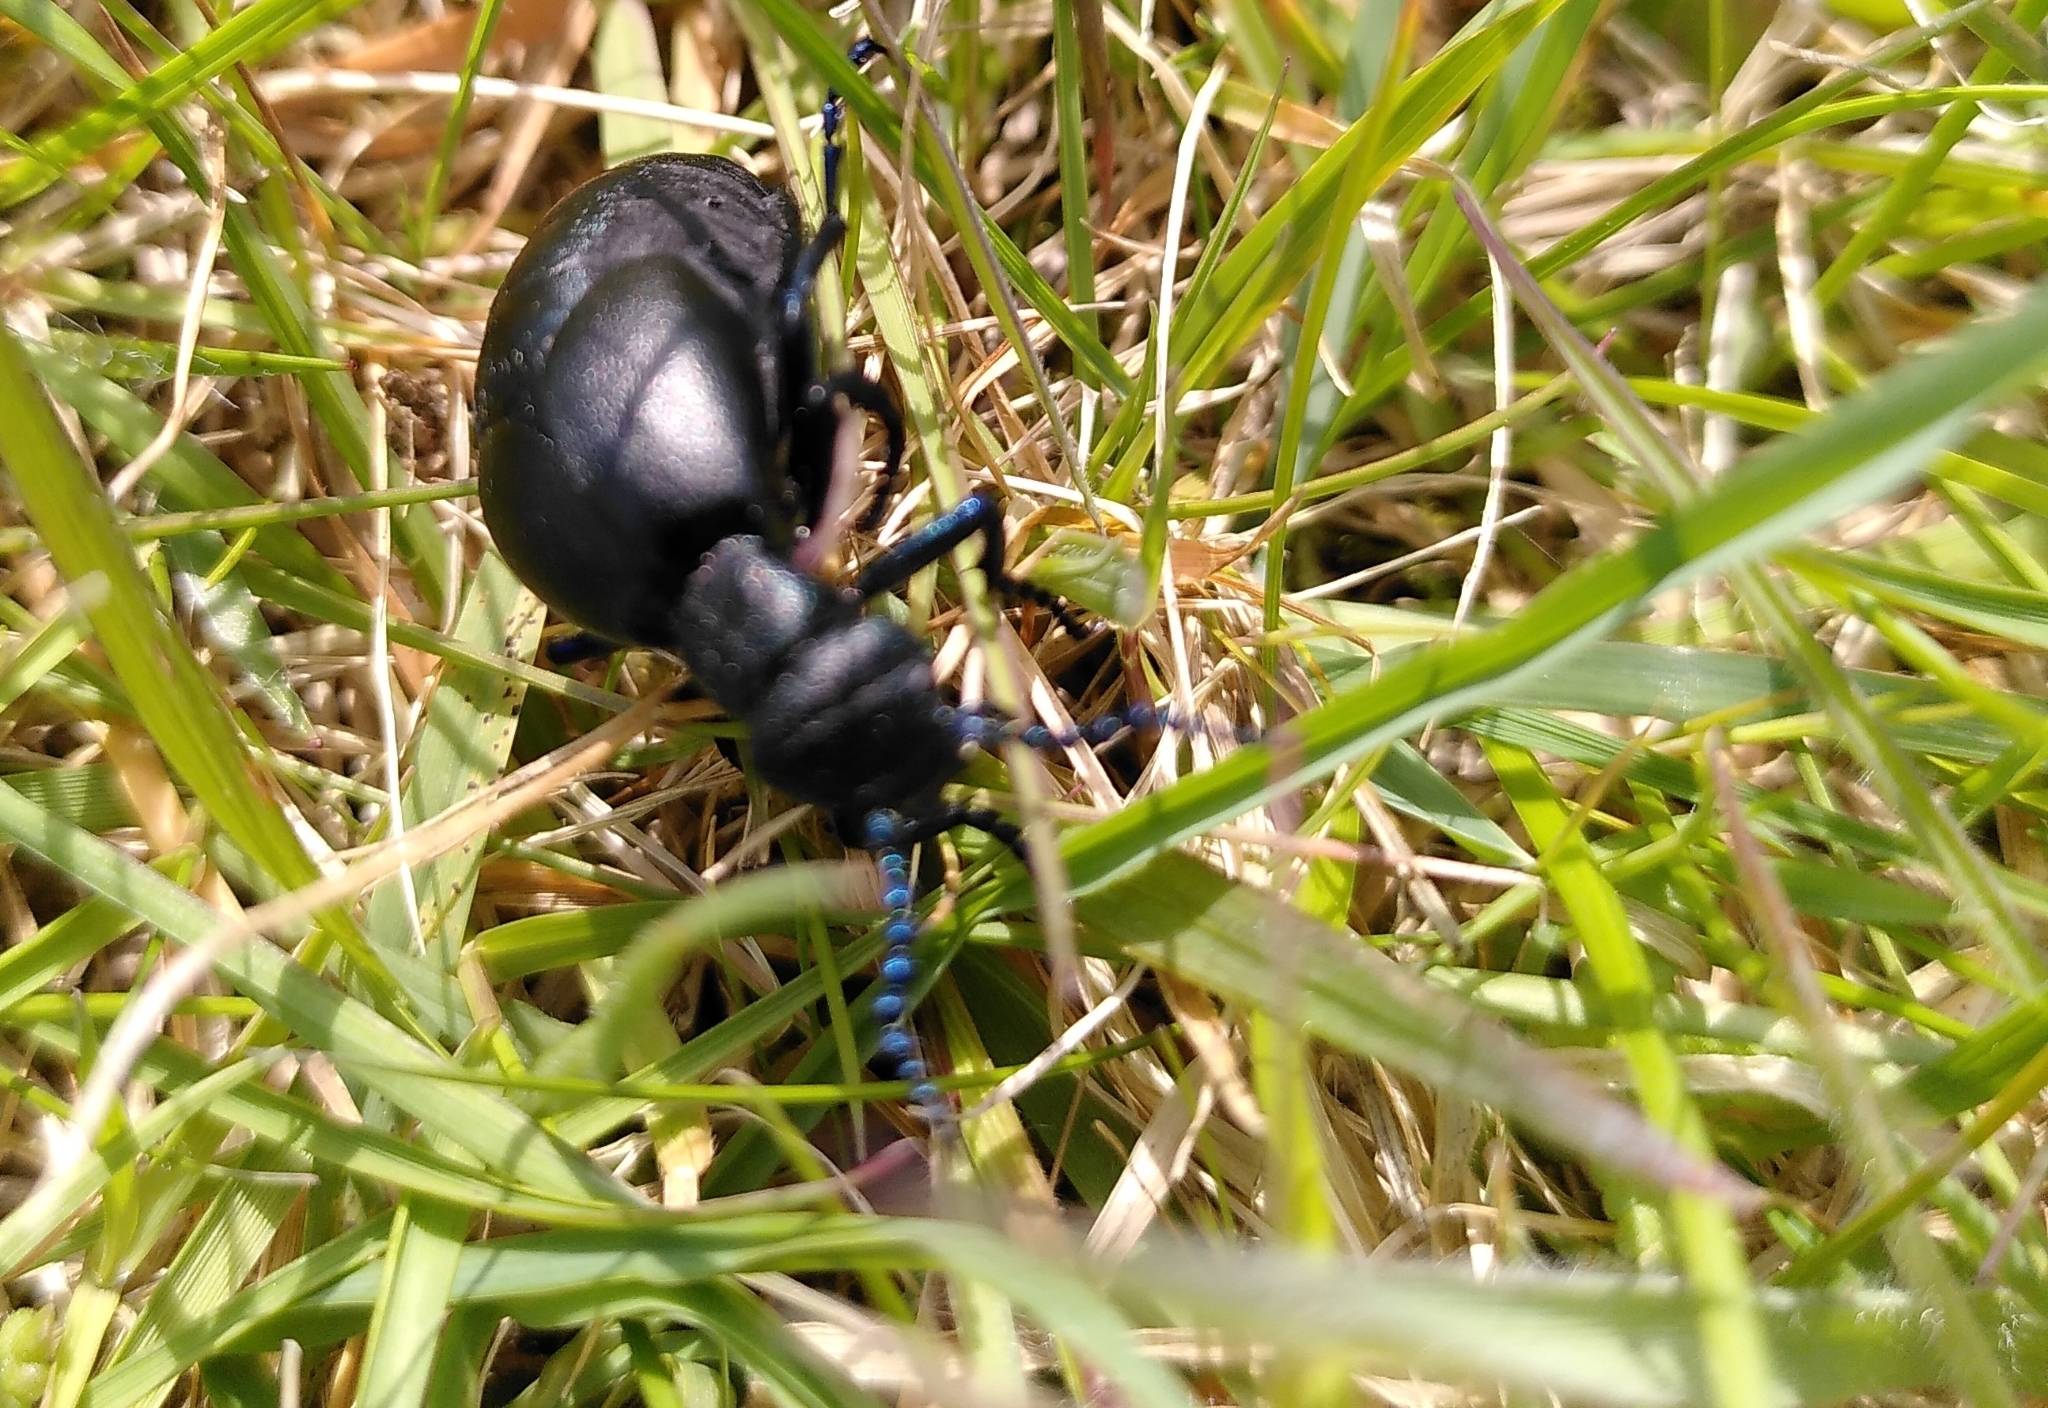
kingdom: Animalia
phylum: Arthropoda
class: Insecta
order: Coleoptera
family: Meloidae
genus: Meloe
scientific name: Meloe proscarabaeus
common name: Black oil-beetle
